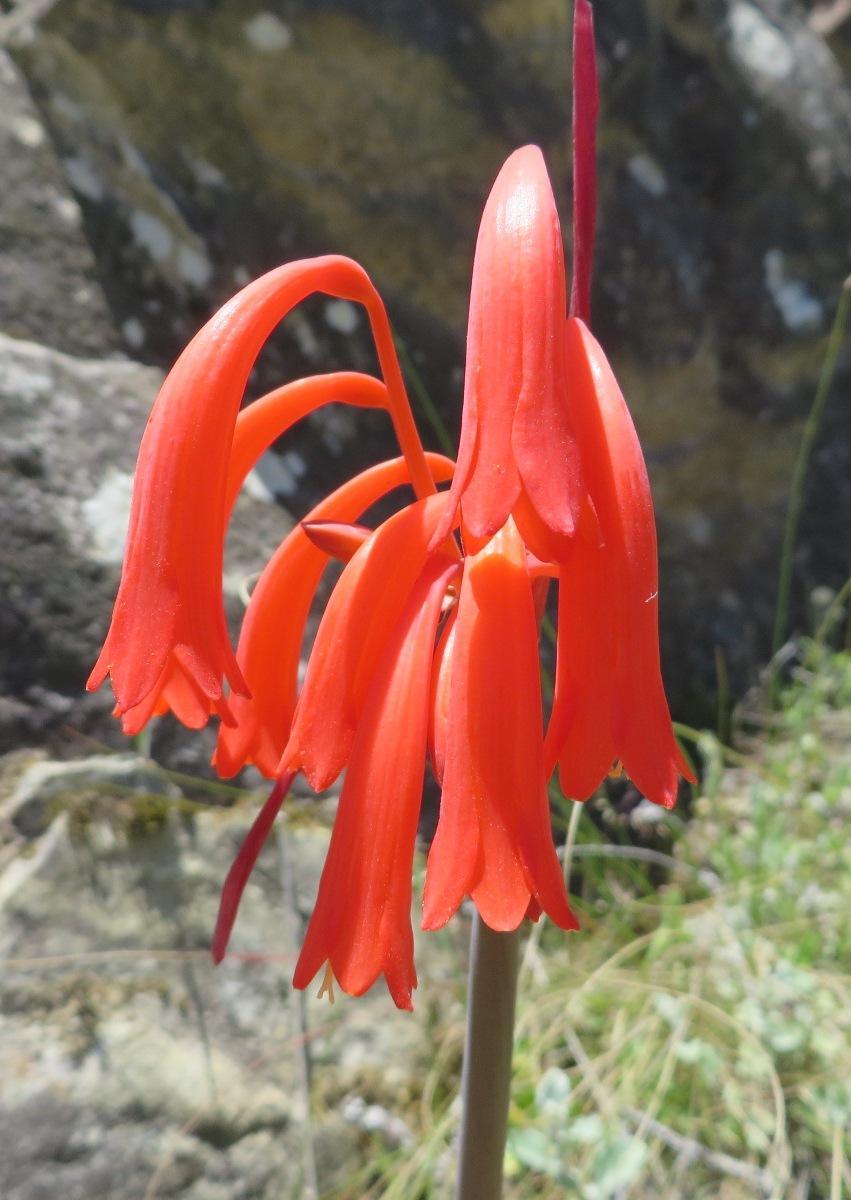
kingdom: Plantae
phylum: Tracheophyta
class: Liliopsida
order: Asparagales
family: Amaryllidaceae
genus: Cyrtanthus
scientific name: Cyrtanthus angustifolius
